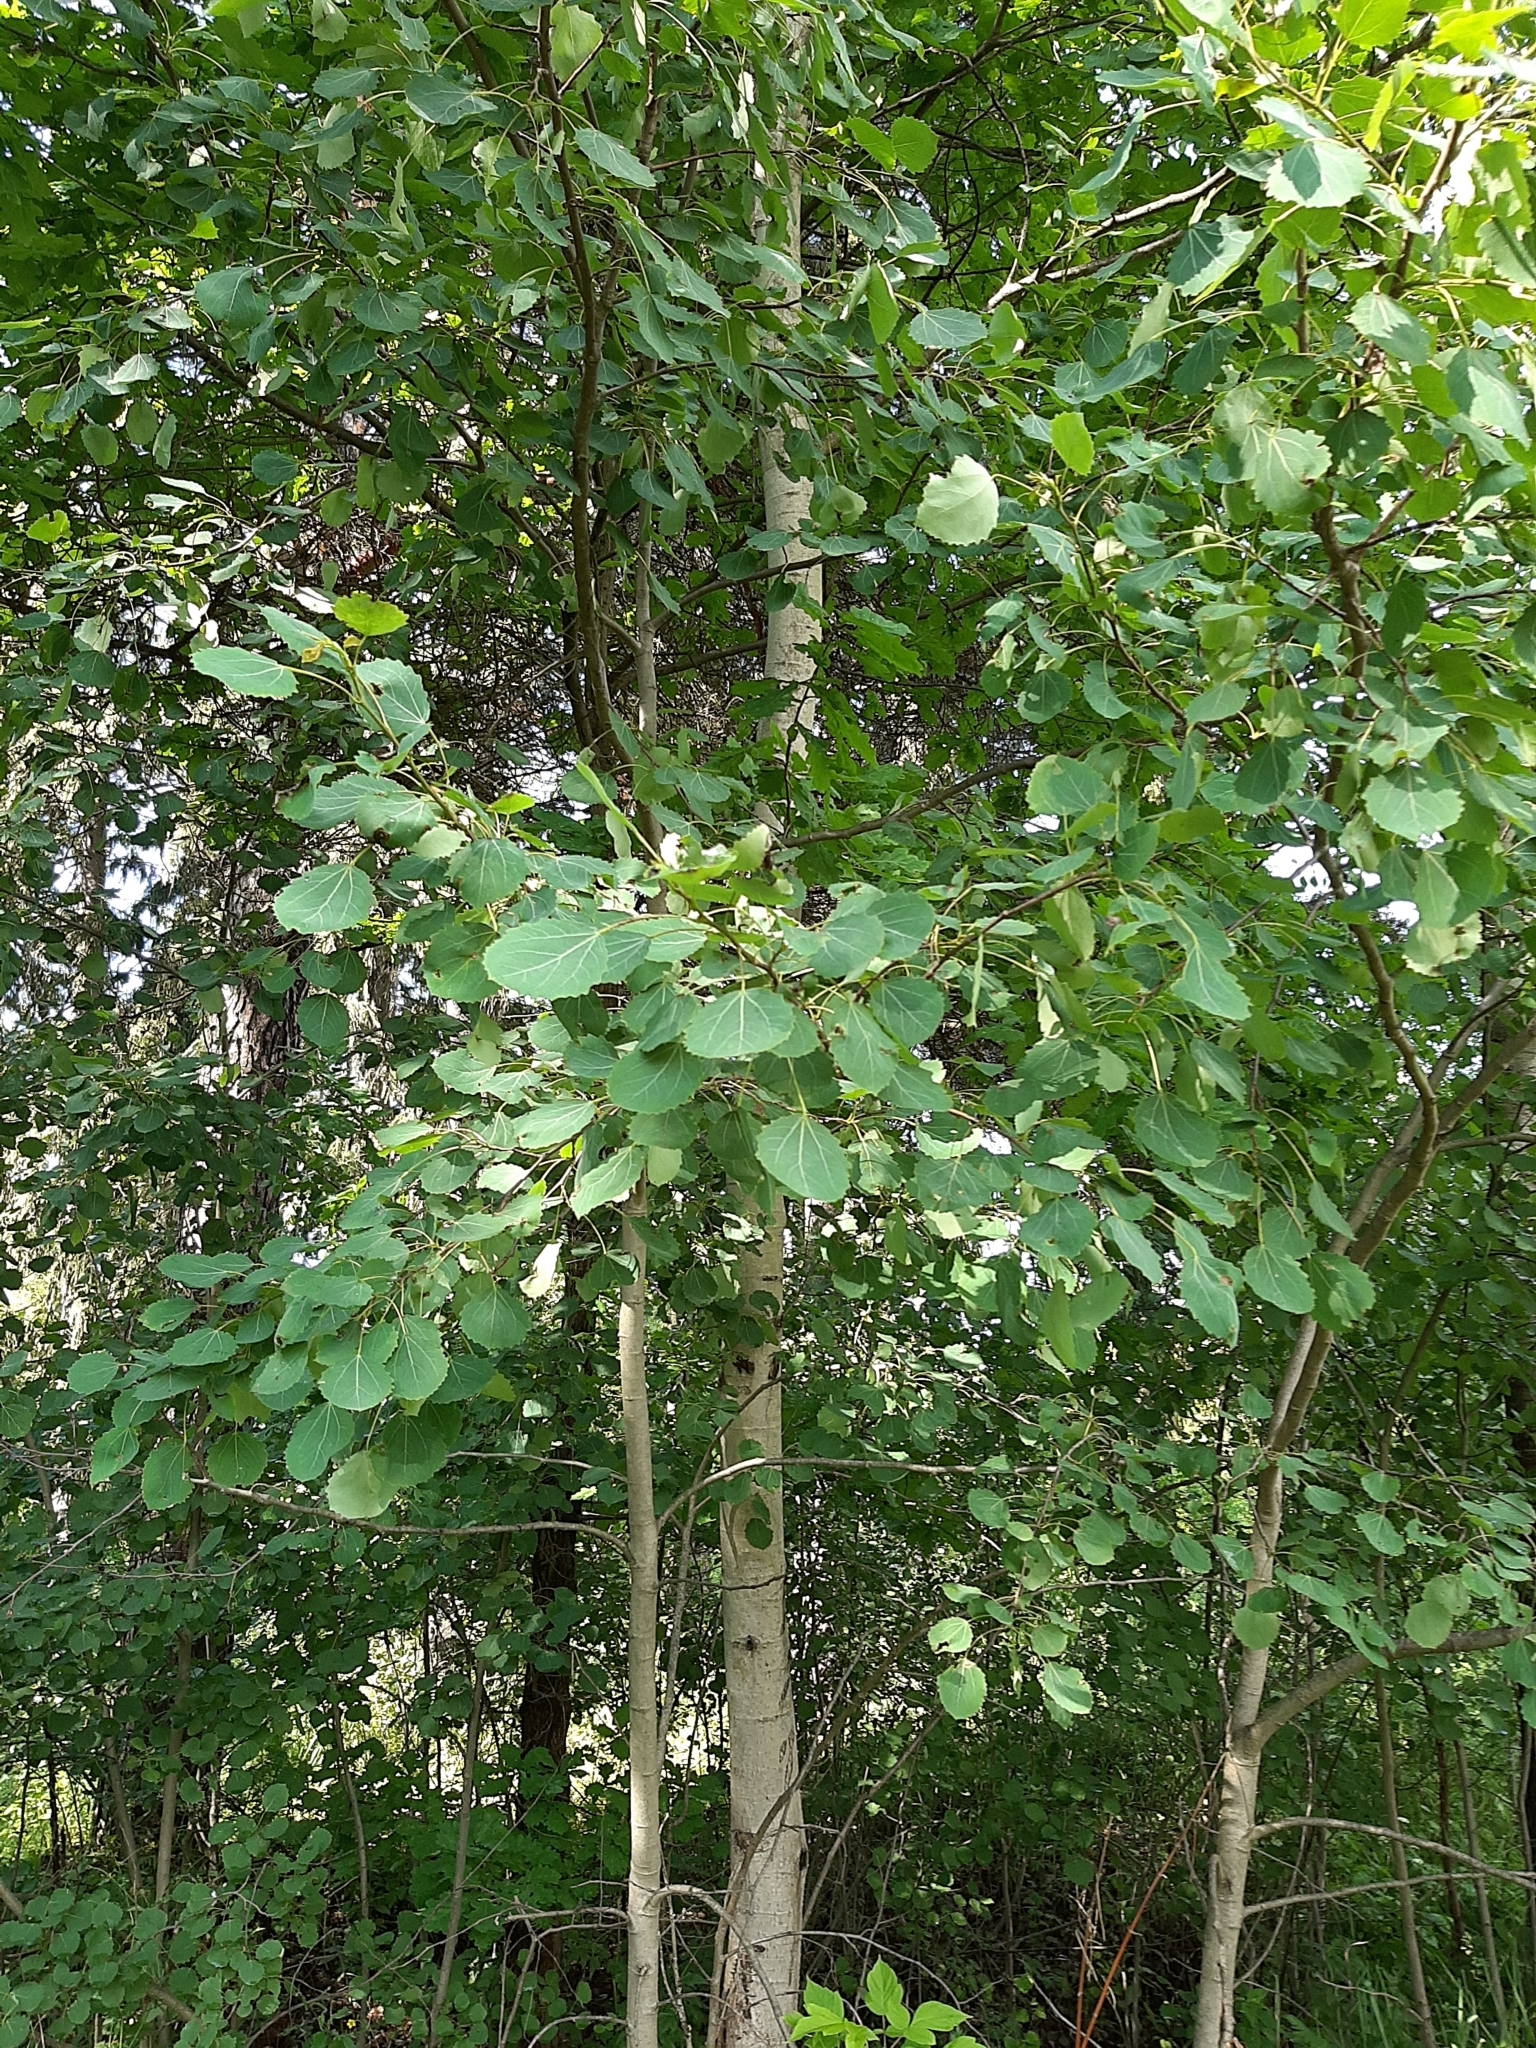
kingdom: Plantae
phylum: Tracheophyta
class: Magnoliopsida
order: Malpighiales
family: Salicaceae
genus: Populus
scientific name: Populus tremula
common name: European aspen
